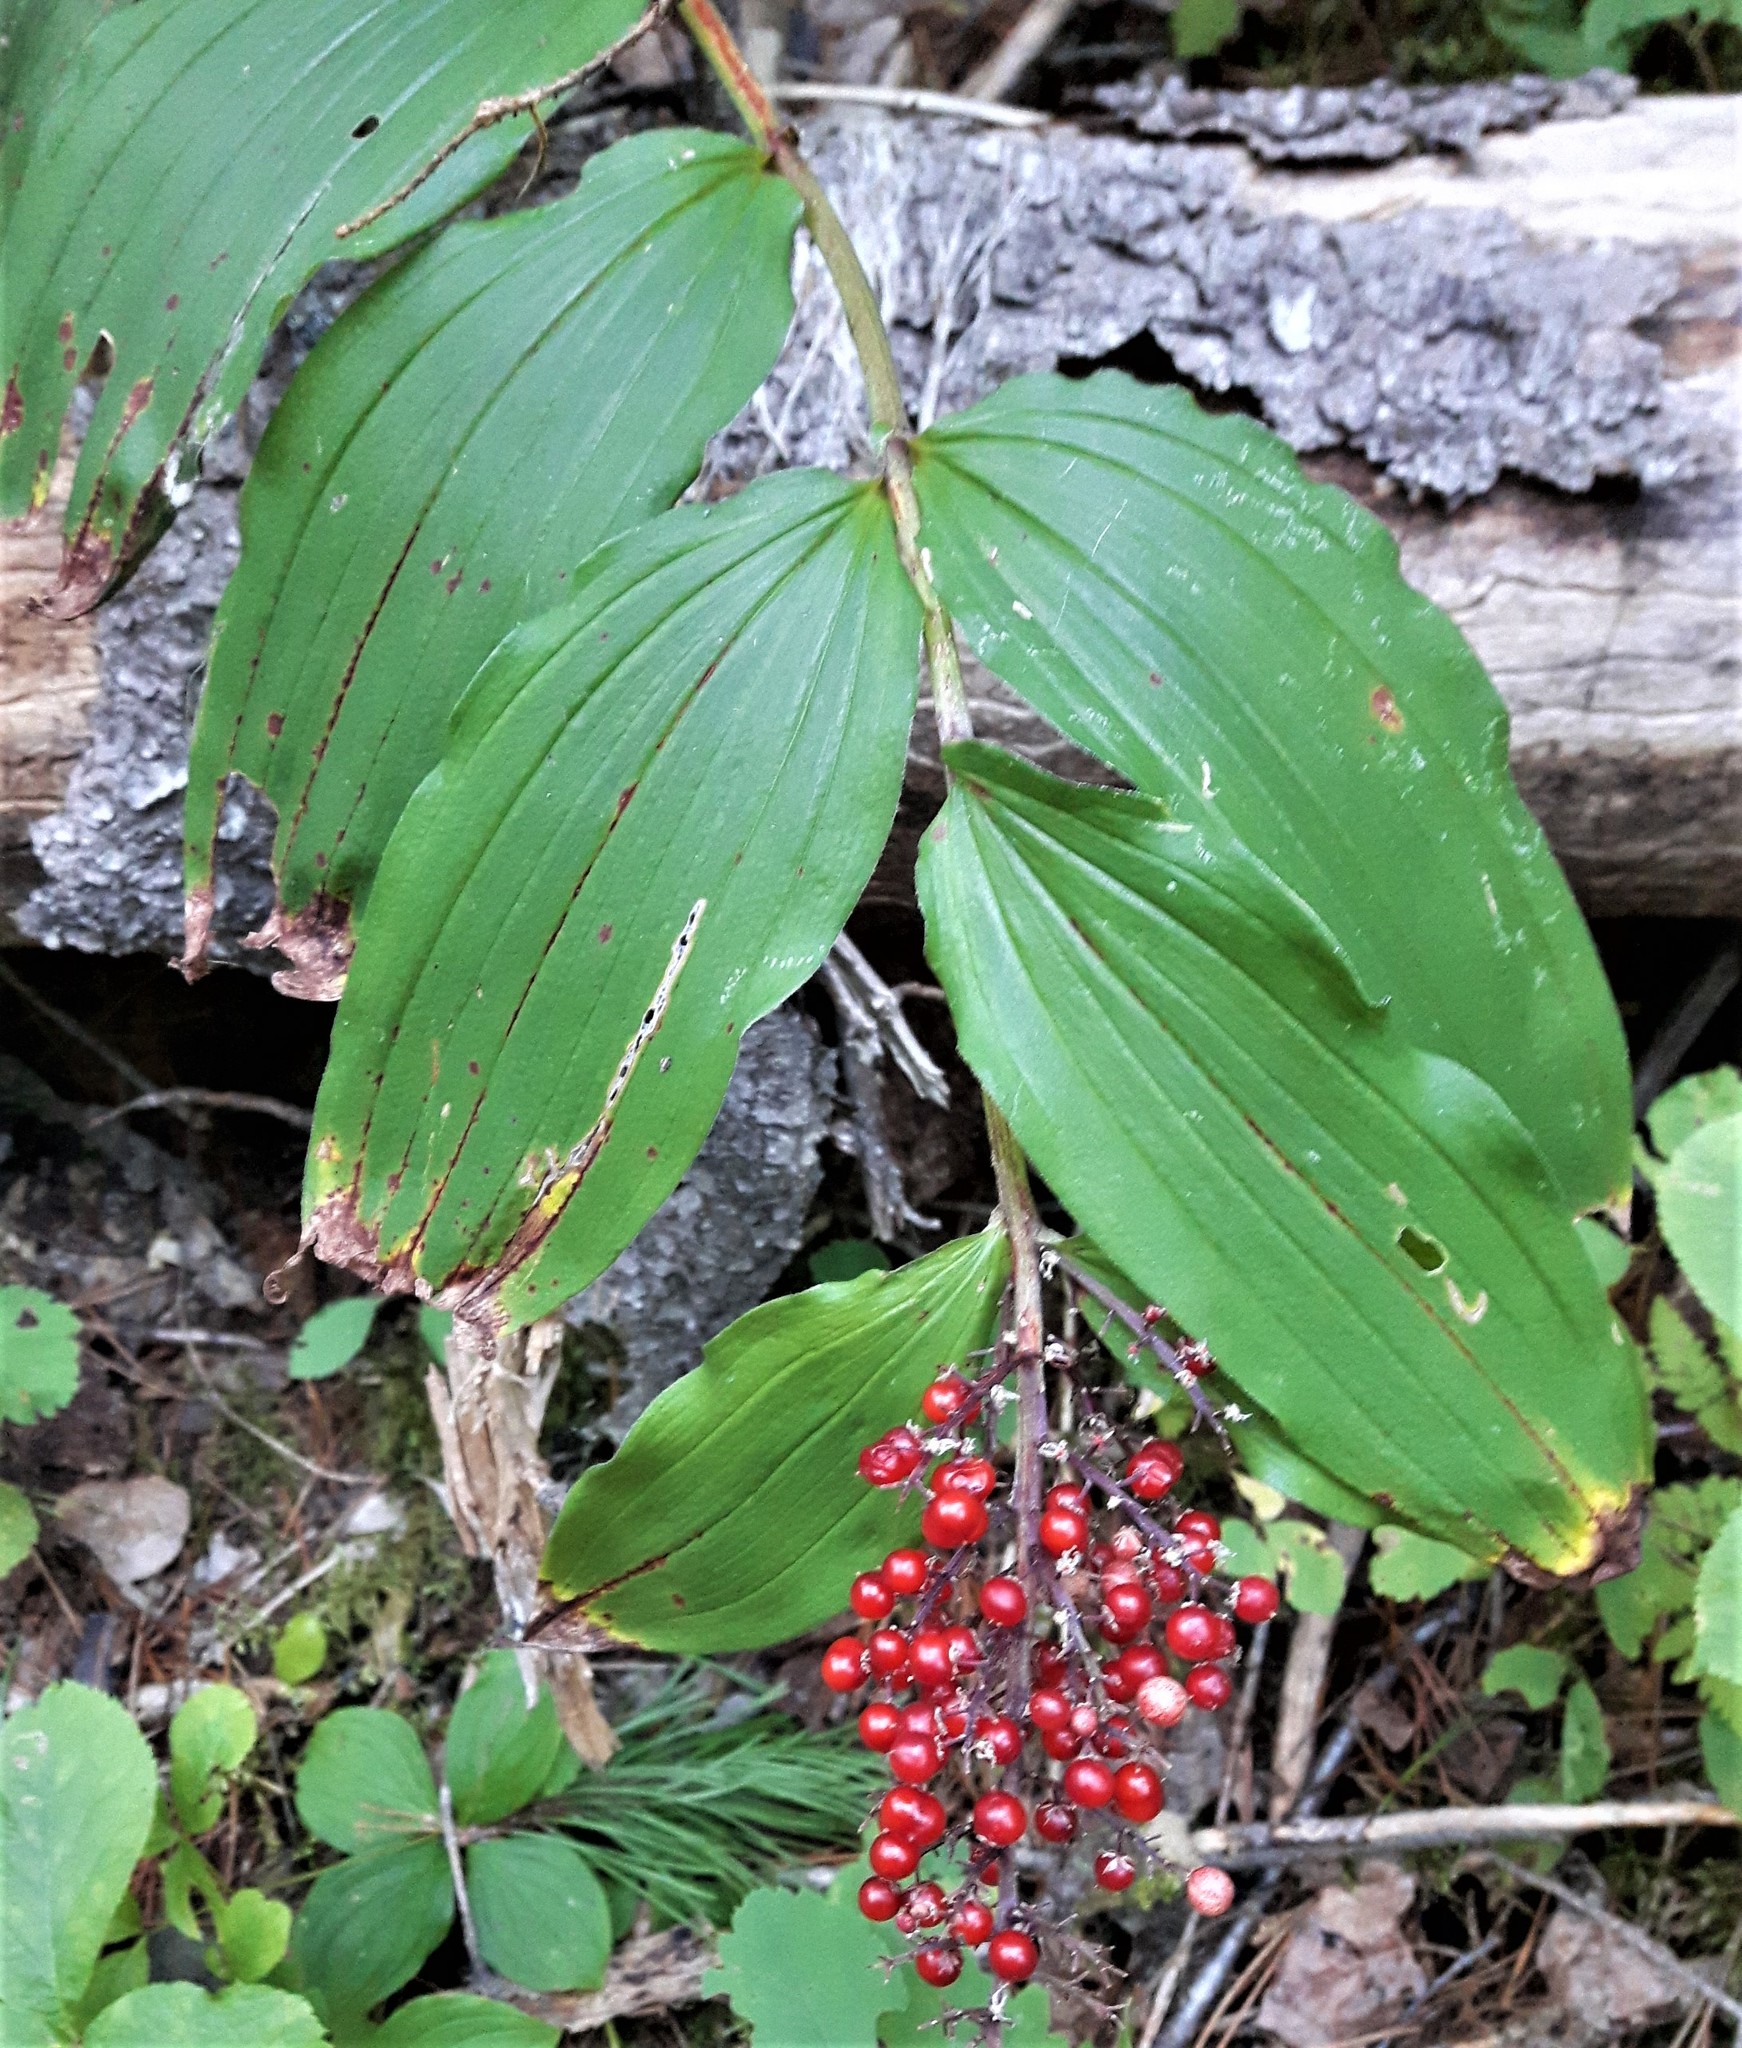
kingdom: Plantae
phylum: Tracheophyta
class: Liliopsida
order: Asparagales
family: Asparagaceae
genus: Maianthemum
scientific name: Maianthemum racemosum
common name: False spikenard
